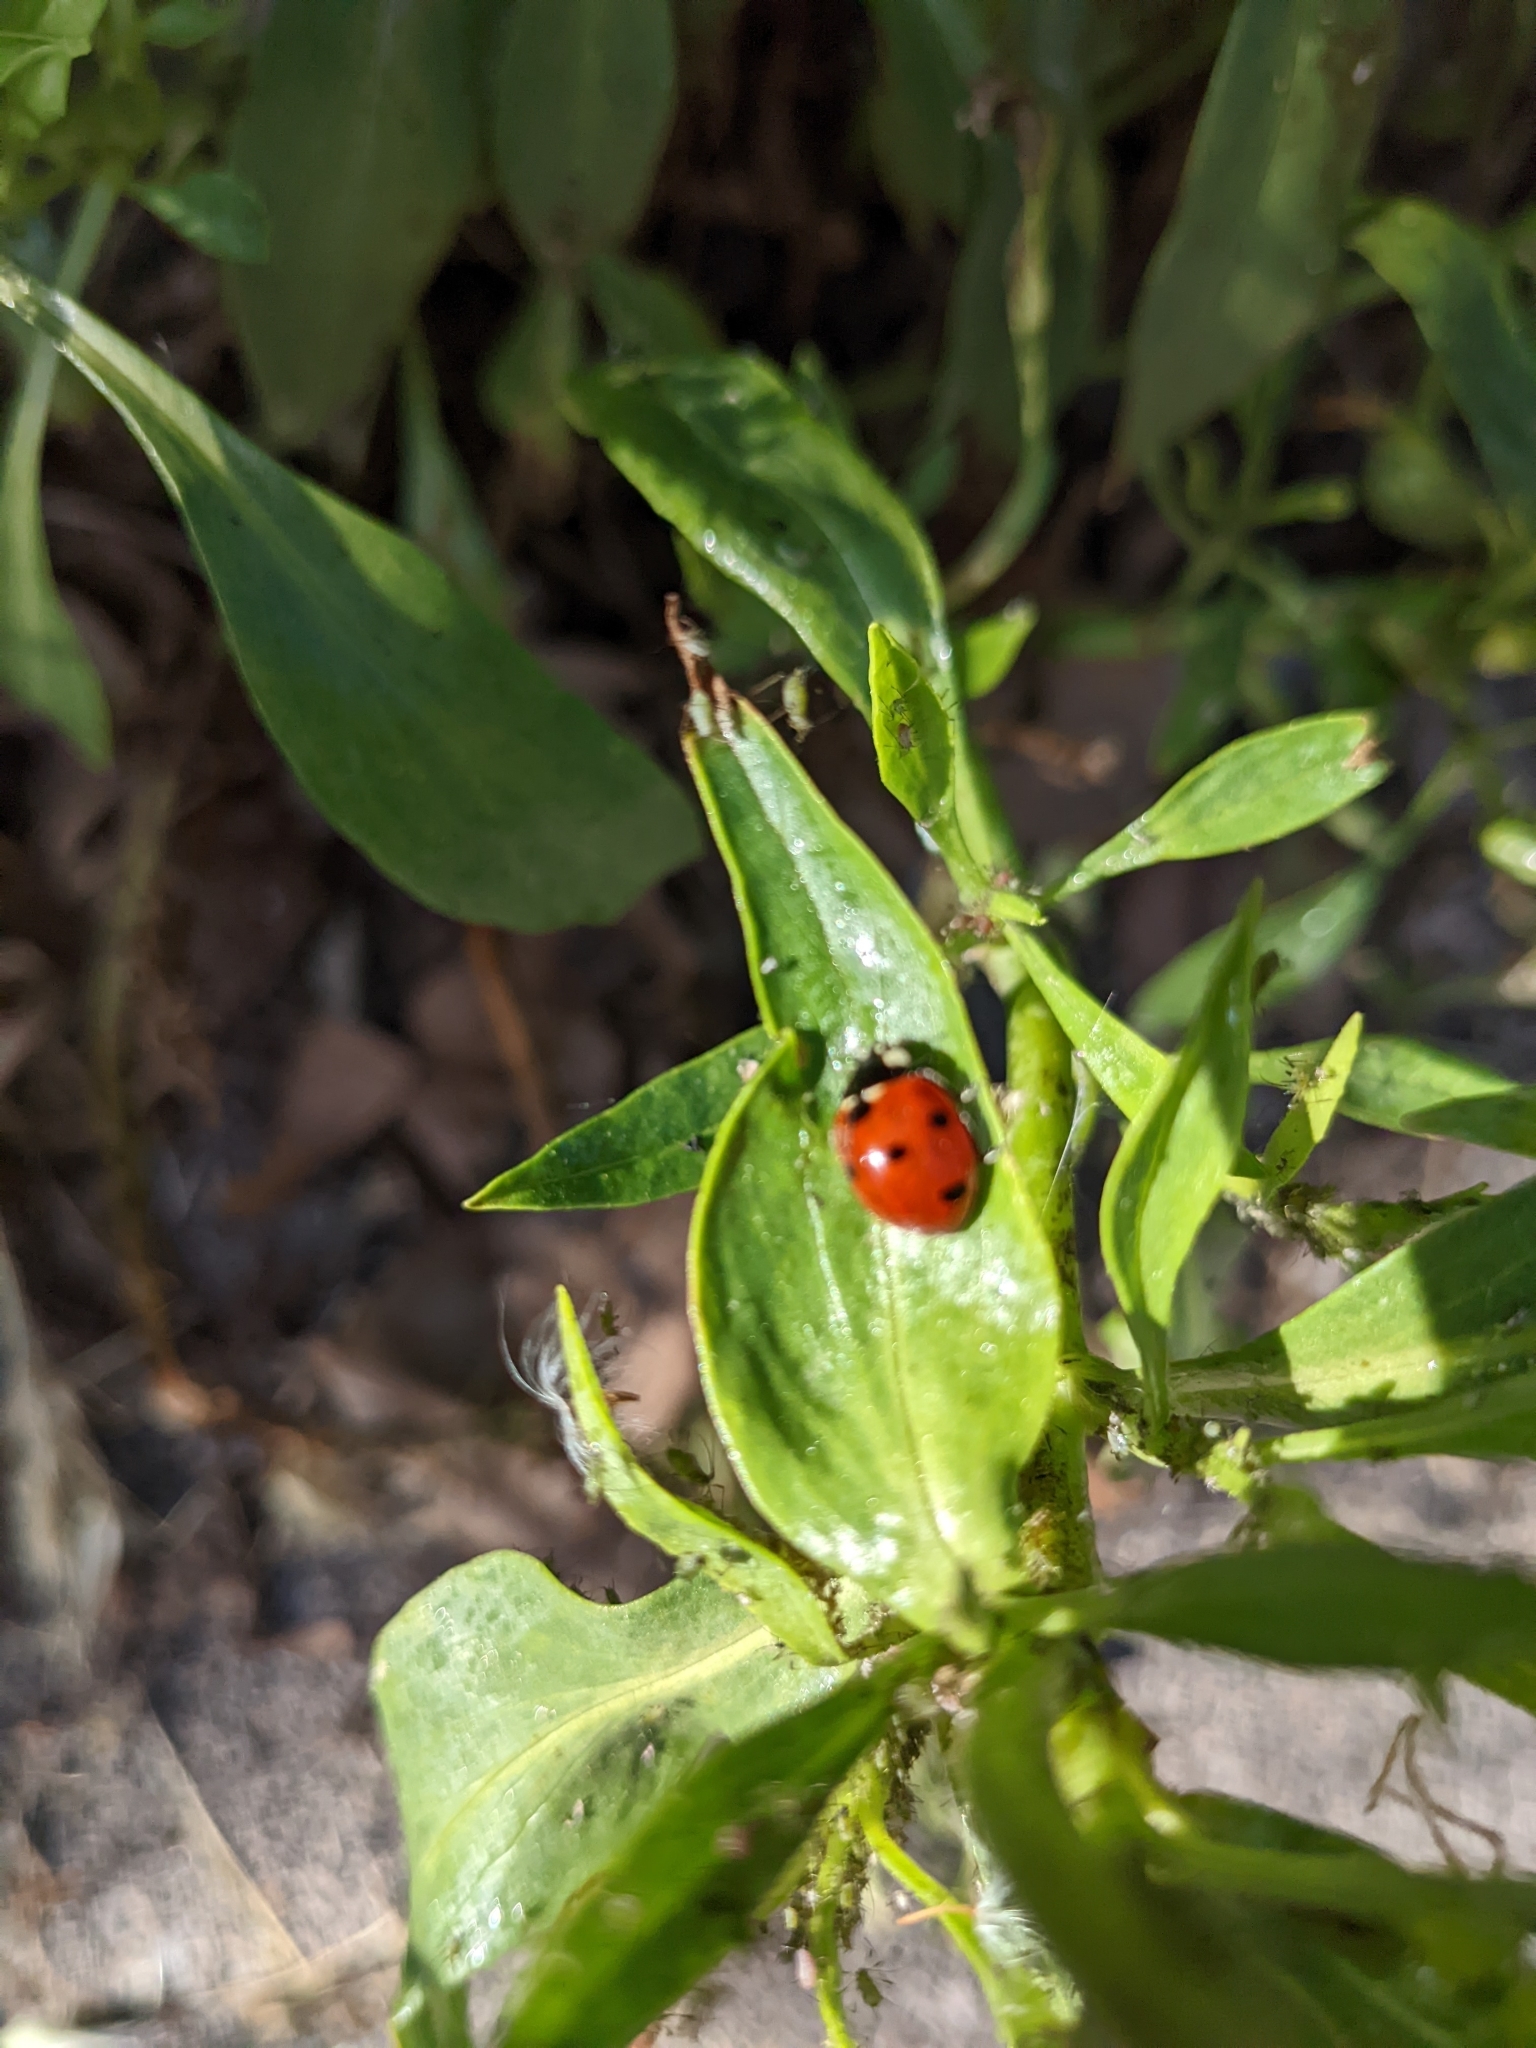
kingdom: Animalia
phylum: Arthropoda
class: Insecta
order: Coleoptera
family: Coccinellidae
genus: Coccinella
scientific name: Coccinella septempunctata
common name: Sevenspotted lady beetle
